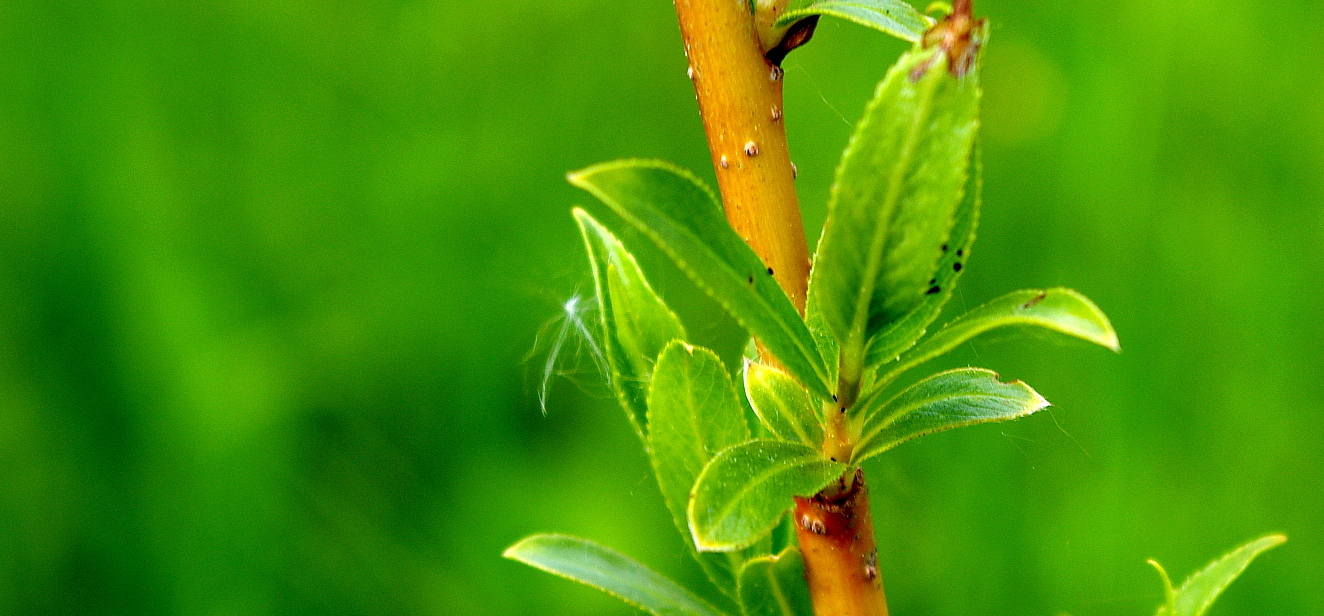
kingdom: Plantae
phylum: Tracheophyta
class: Magnoliopsida
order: Malpighiales
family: Salicaceae
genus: Salix
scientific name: Salix triandra
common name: Almond willow
